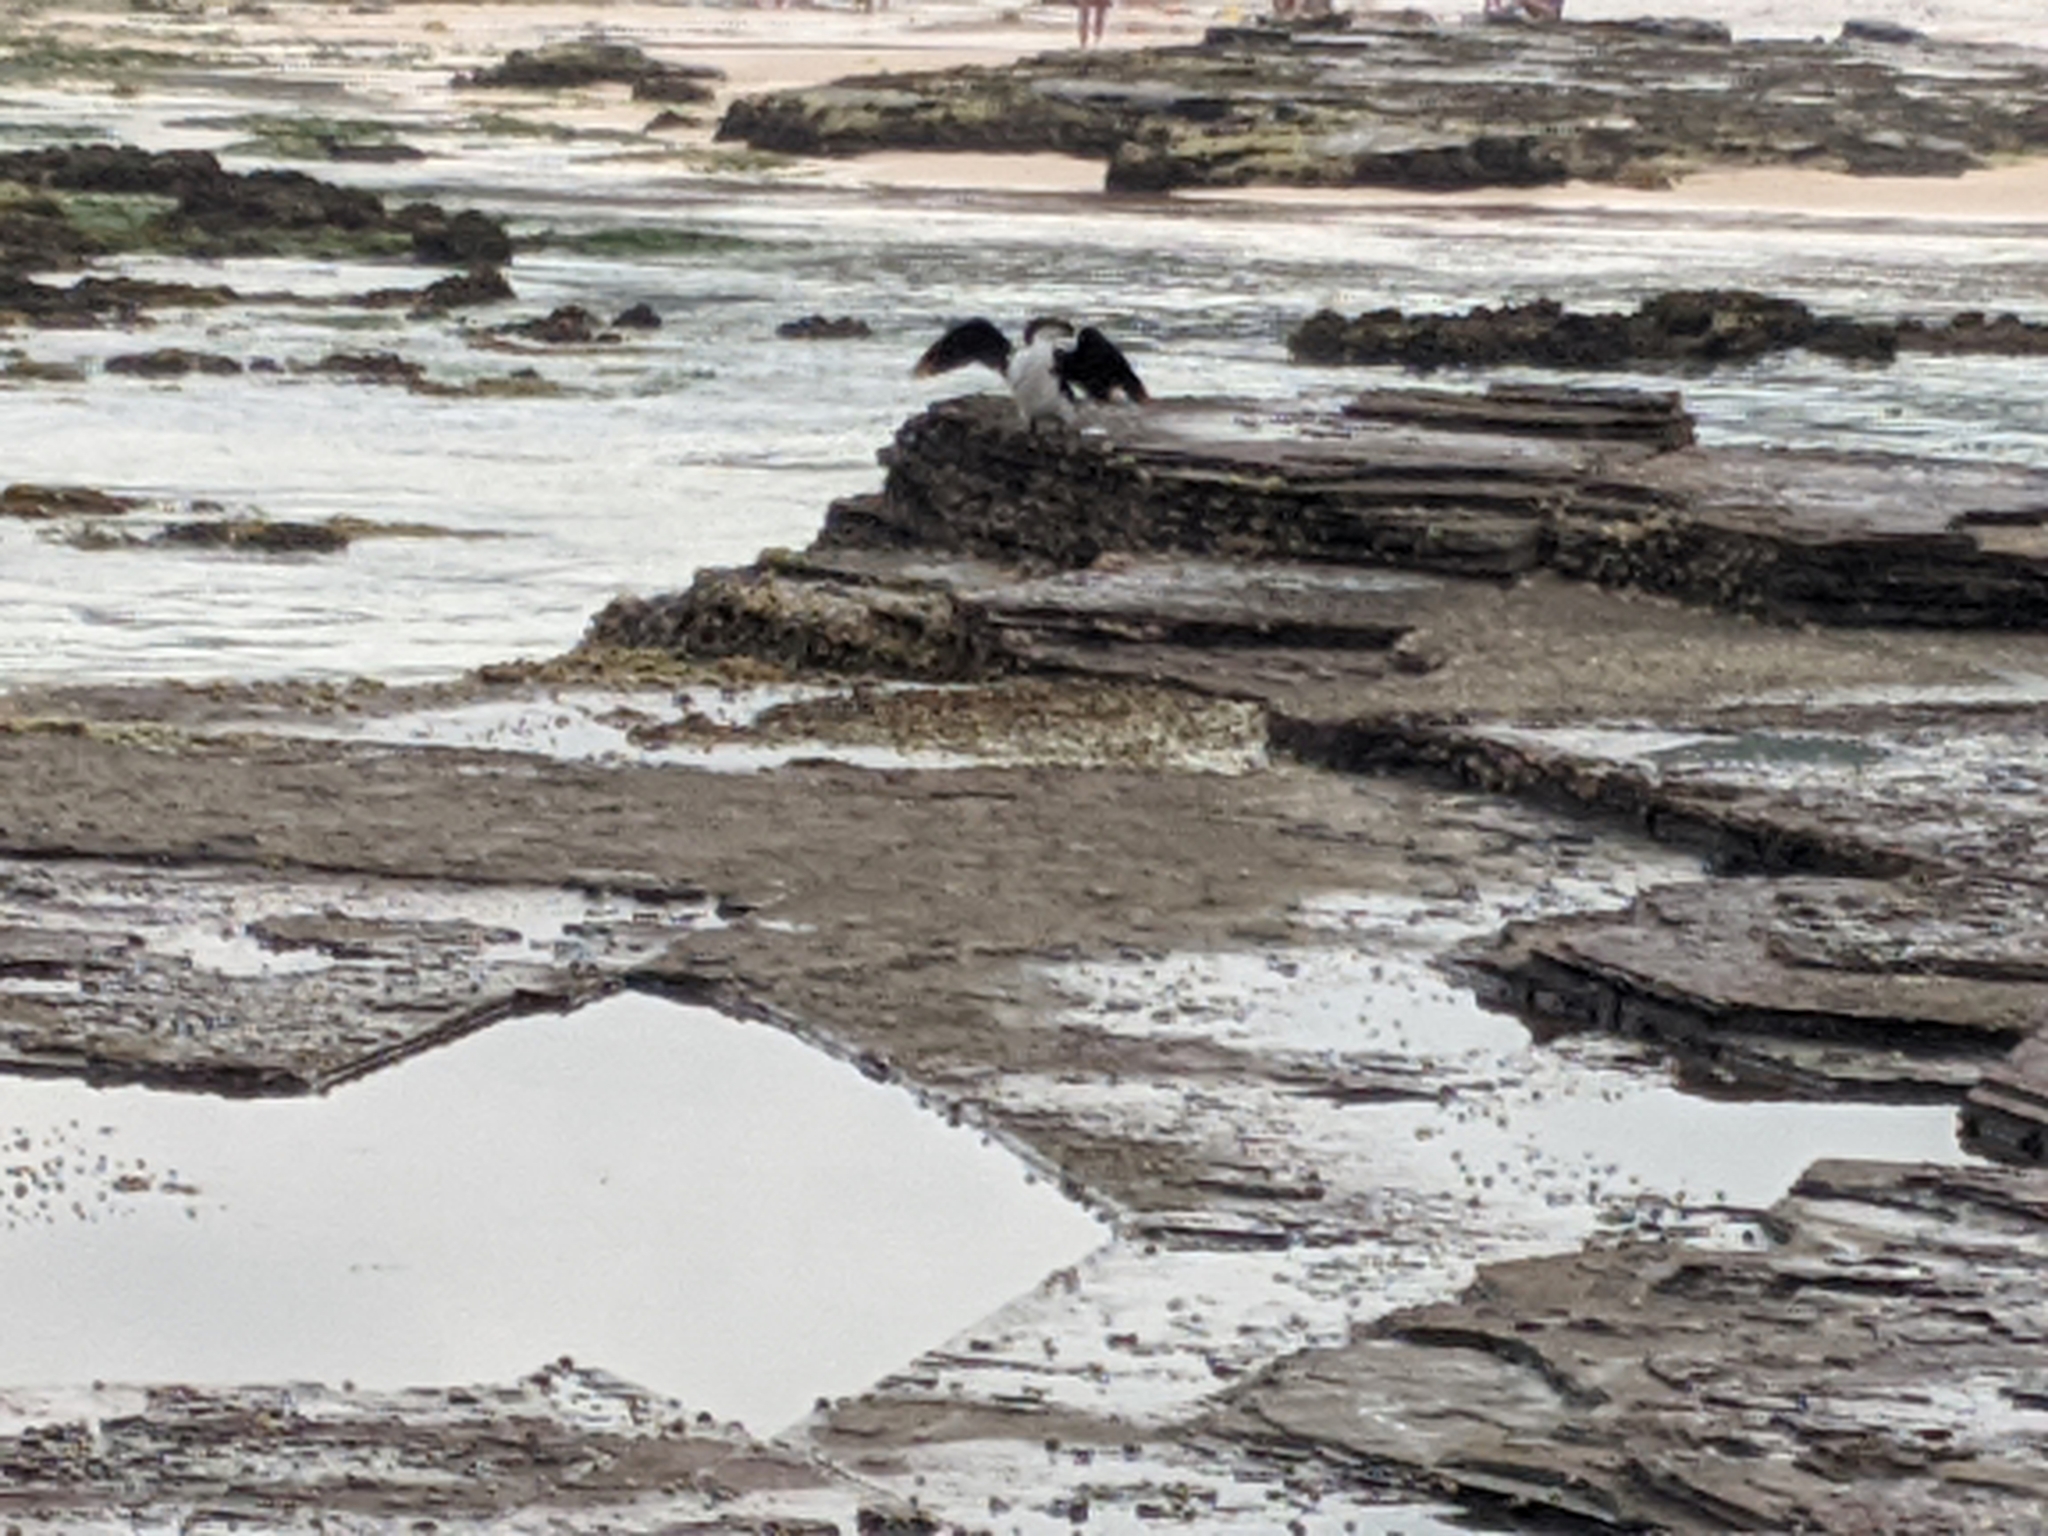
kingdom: Animalia
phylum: Chordata
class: Aves
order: Suliformes
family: Phalacrocoracidae
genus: Microcarbo
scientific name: Microcarbo melanoleucos
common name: Little pied cormorant
